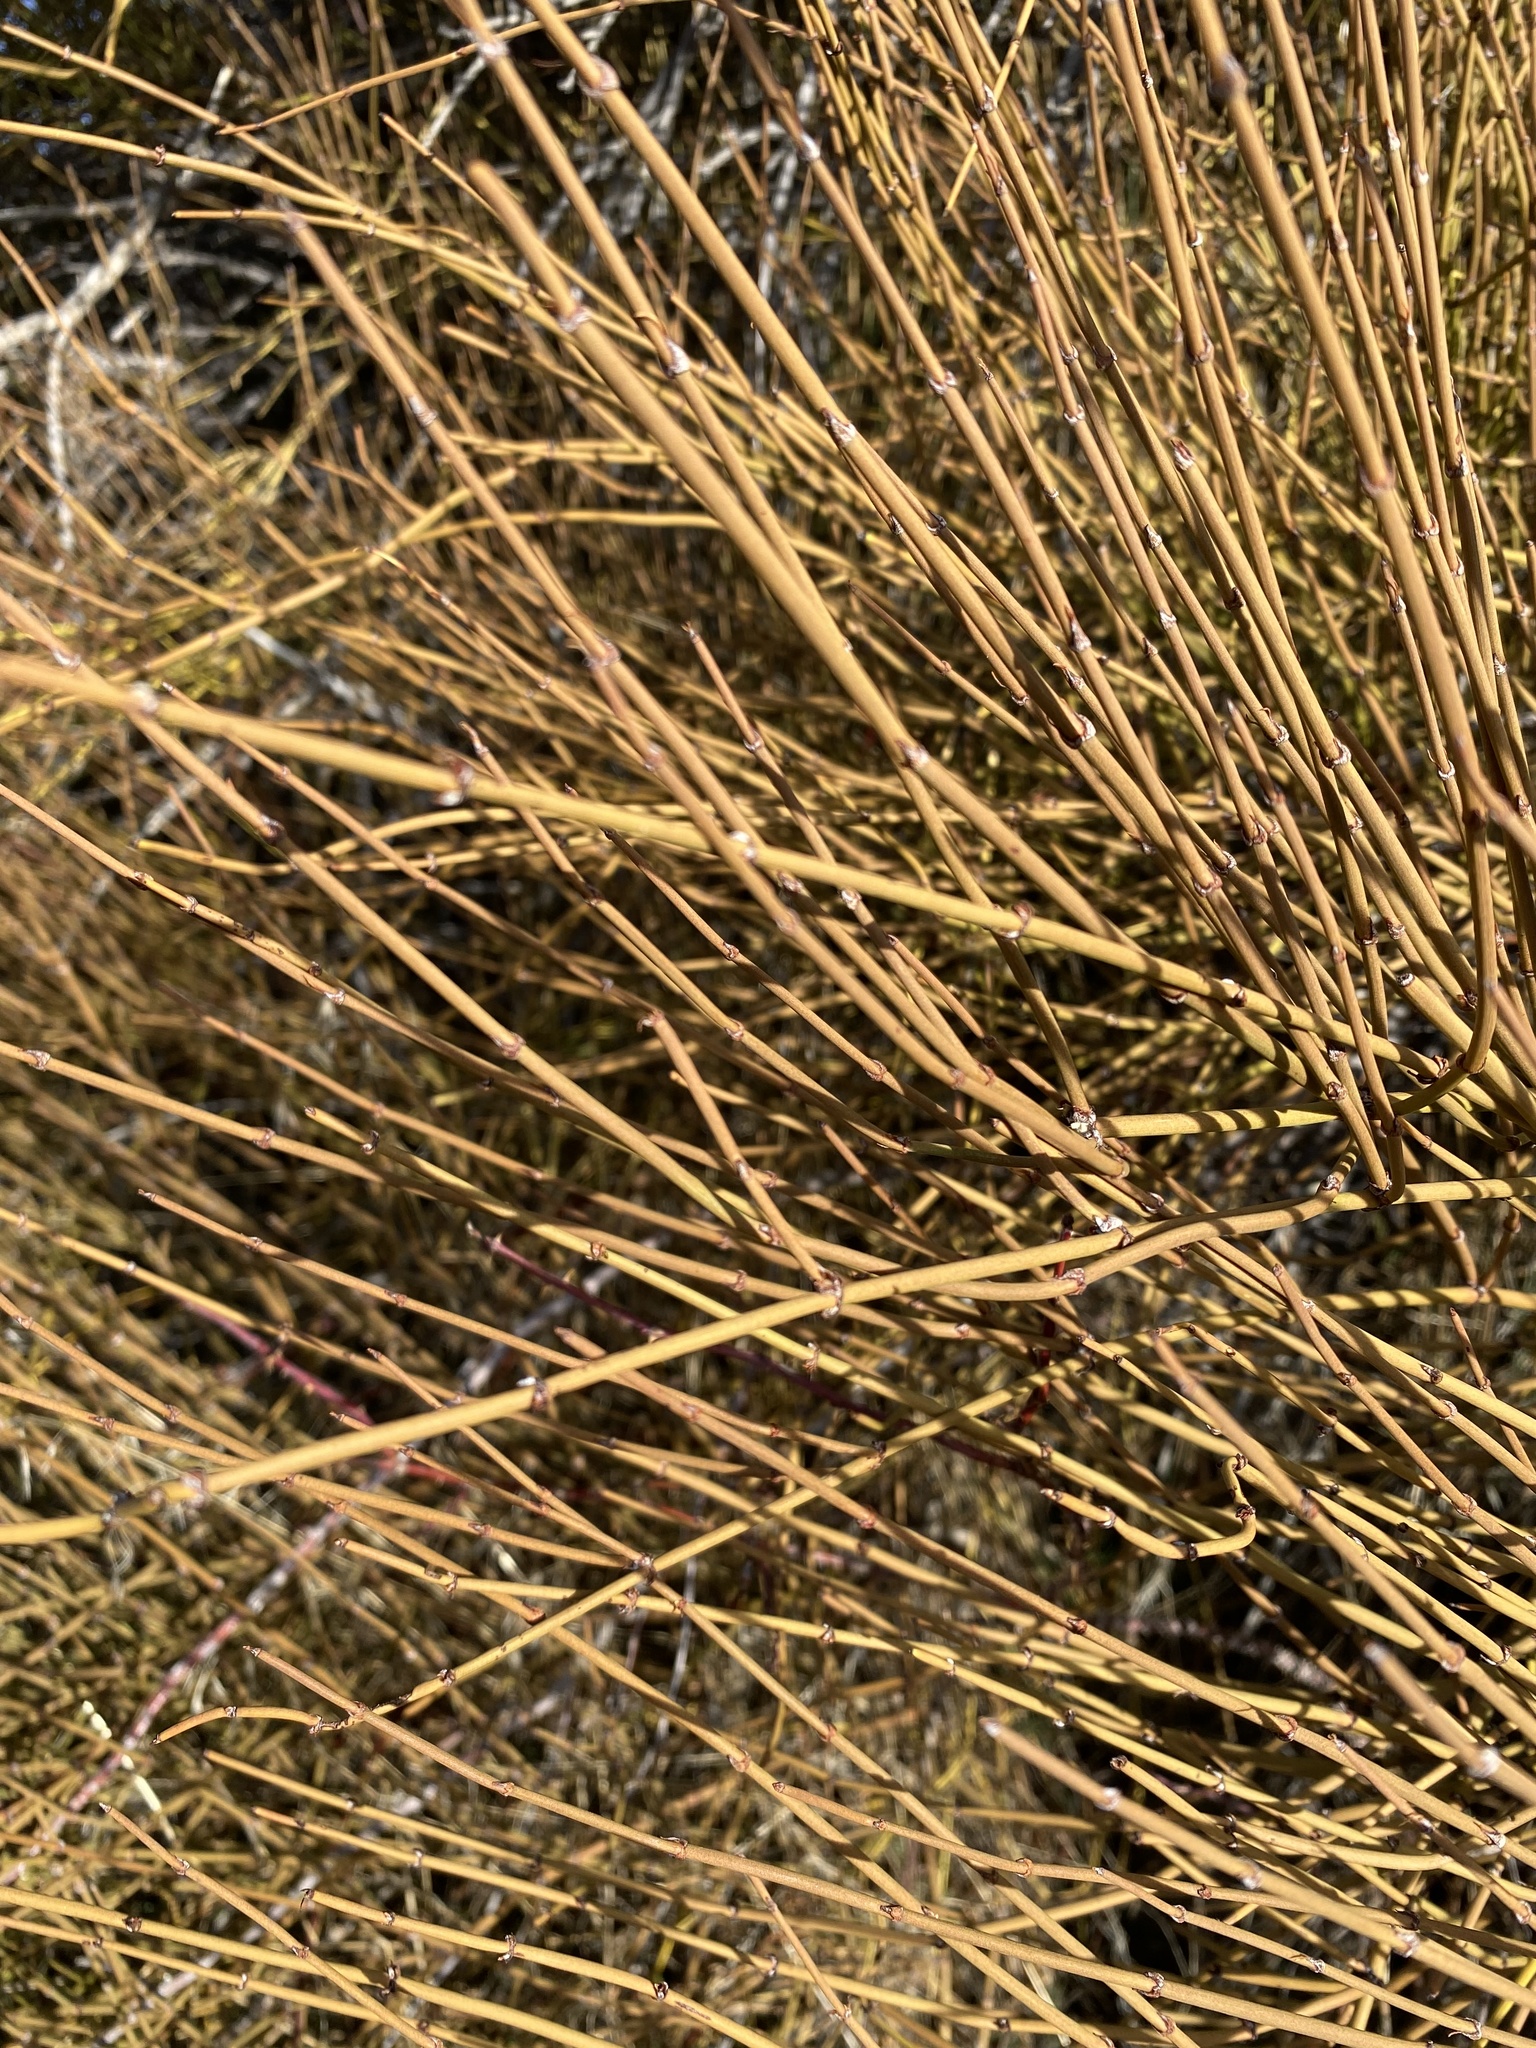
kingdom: Plantae
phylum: Tracheophyta
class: Gnetopsida
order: Ephedrales
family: Ephedraceae
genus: Ephedra
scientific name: Ephedra viridis
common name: Green ephedra
